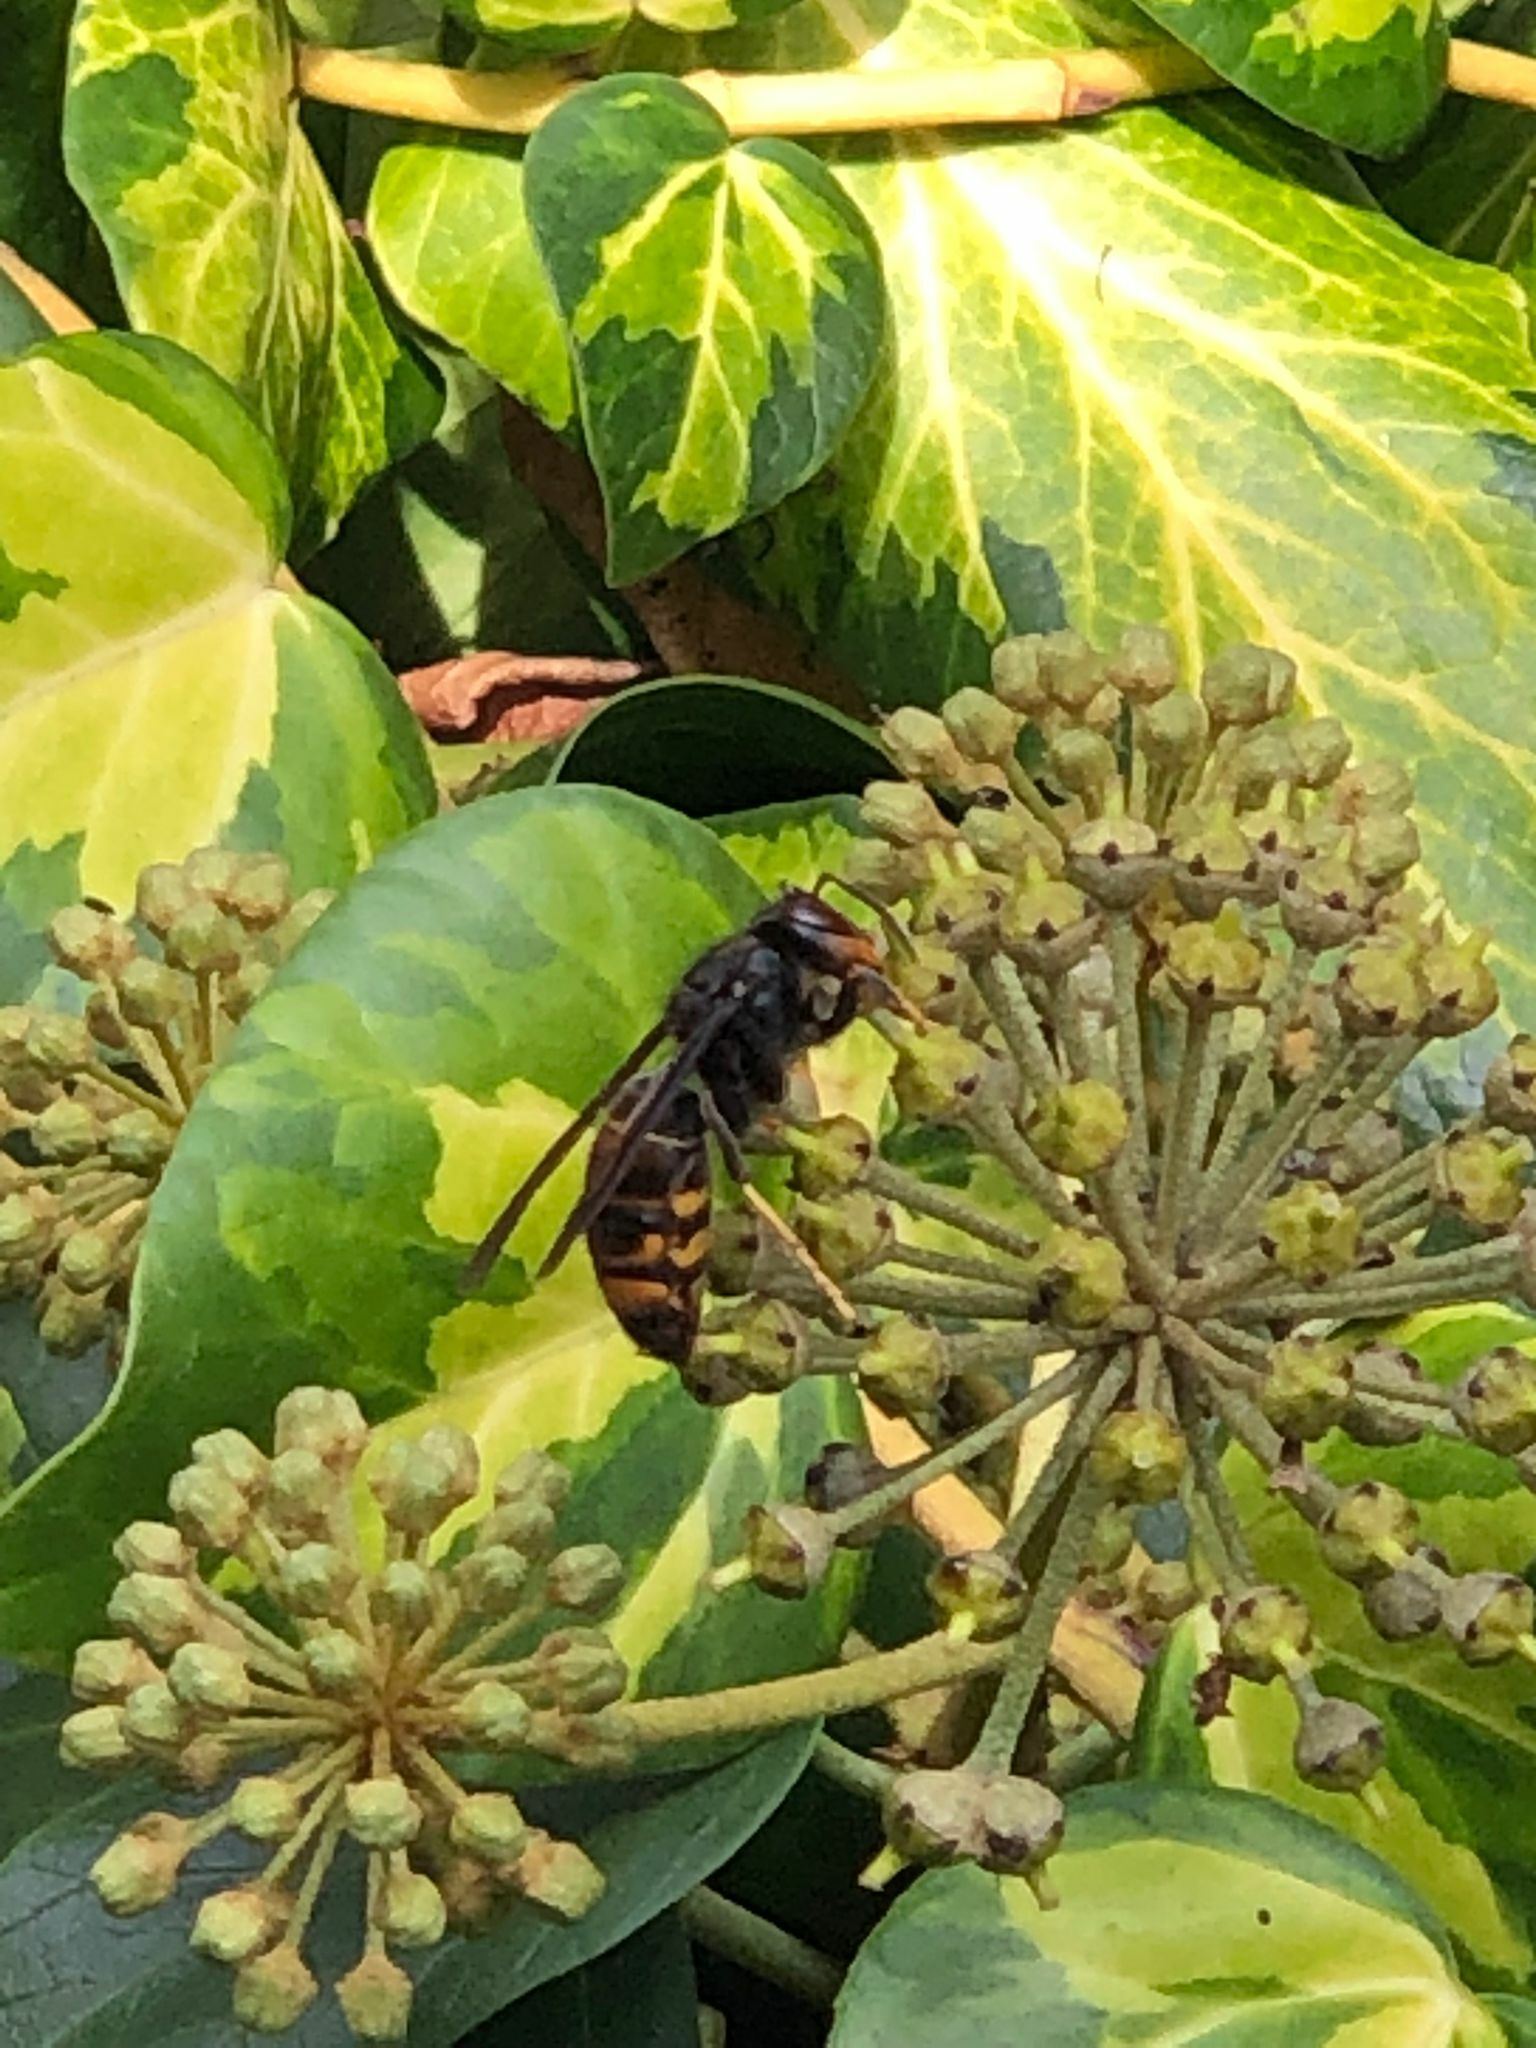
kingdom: Animalia
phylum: Arthropoda
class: Insecta
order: Hymenoptera
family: Vespidae
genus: Vespa
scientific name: Vespa velutina
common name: Asian hornet
